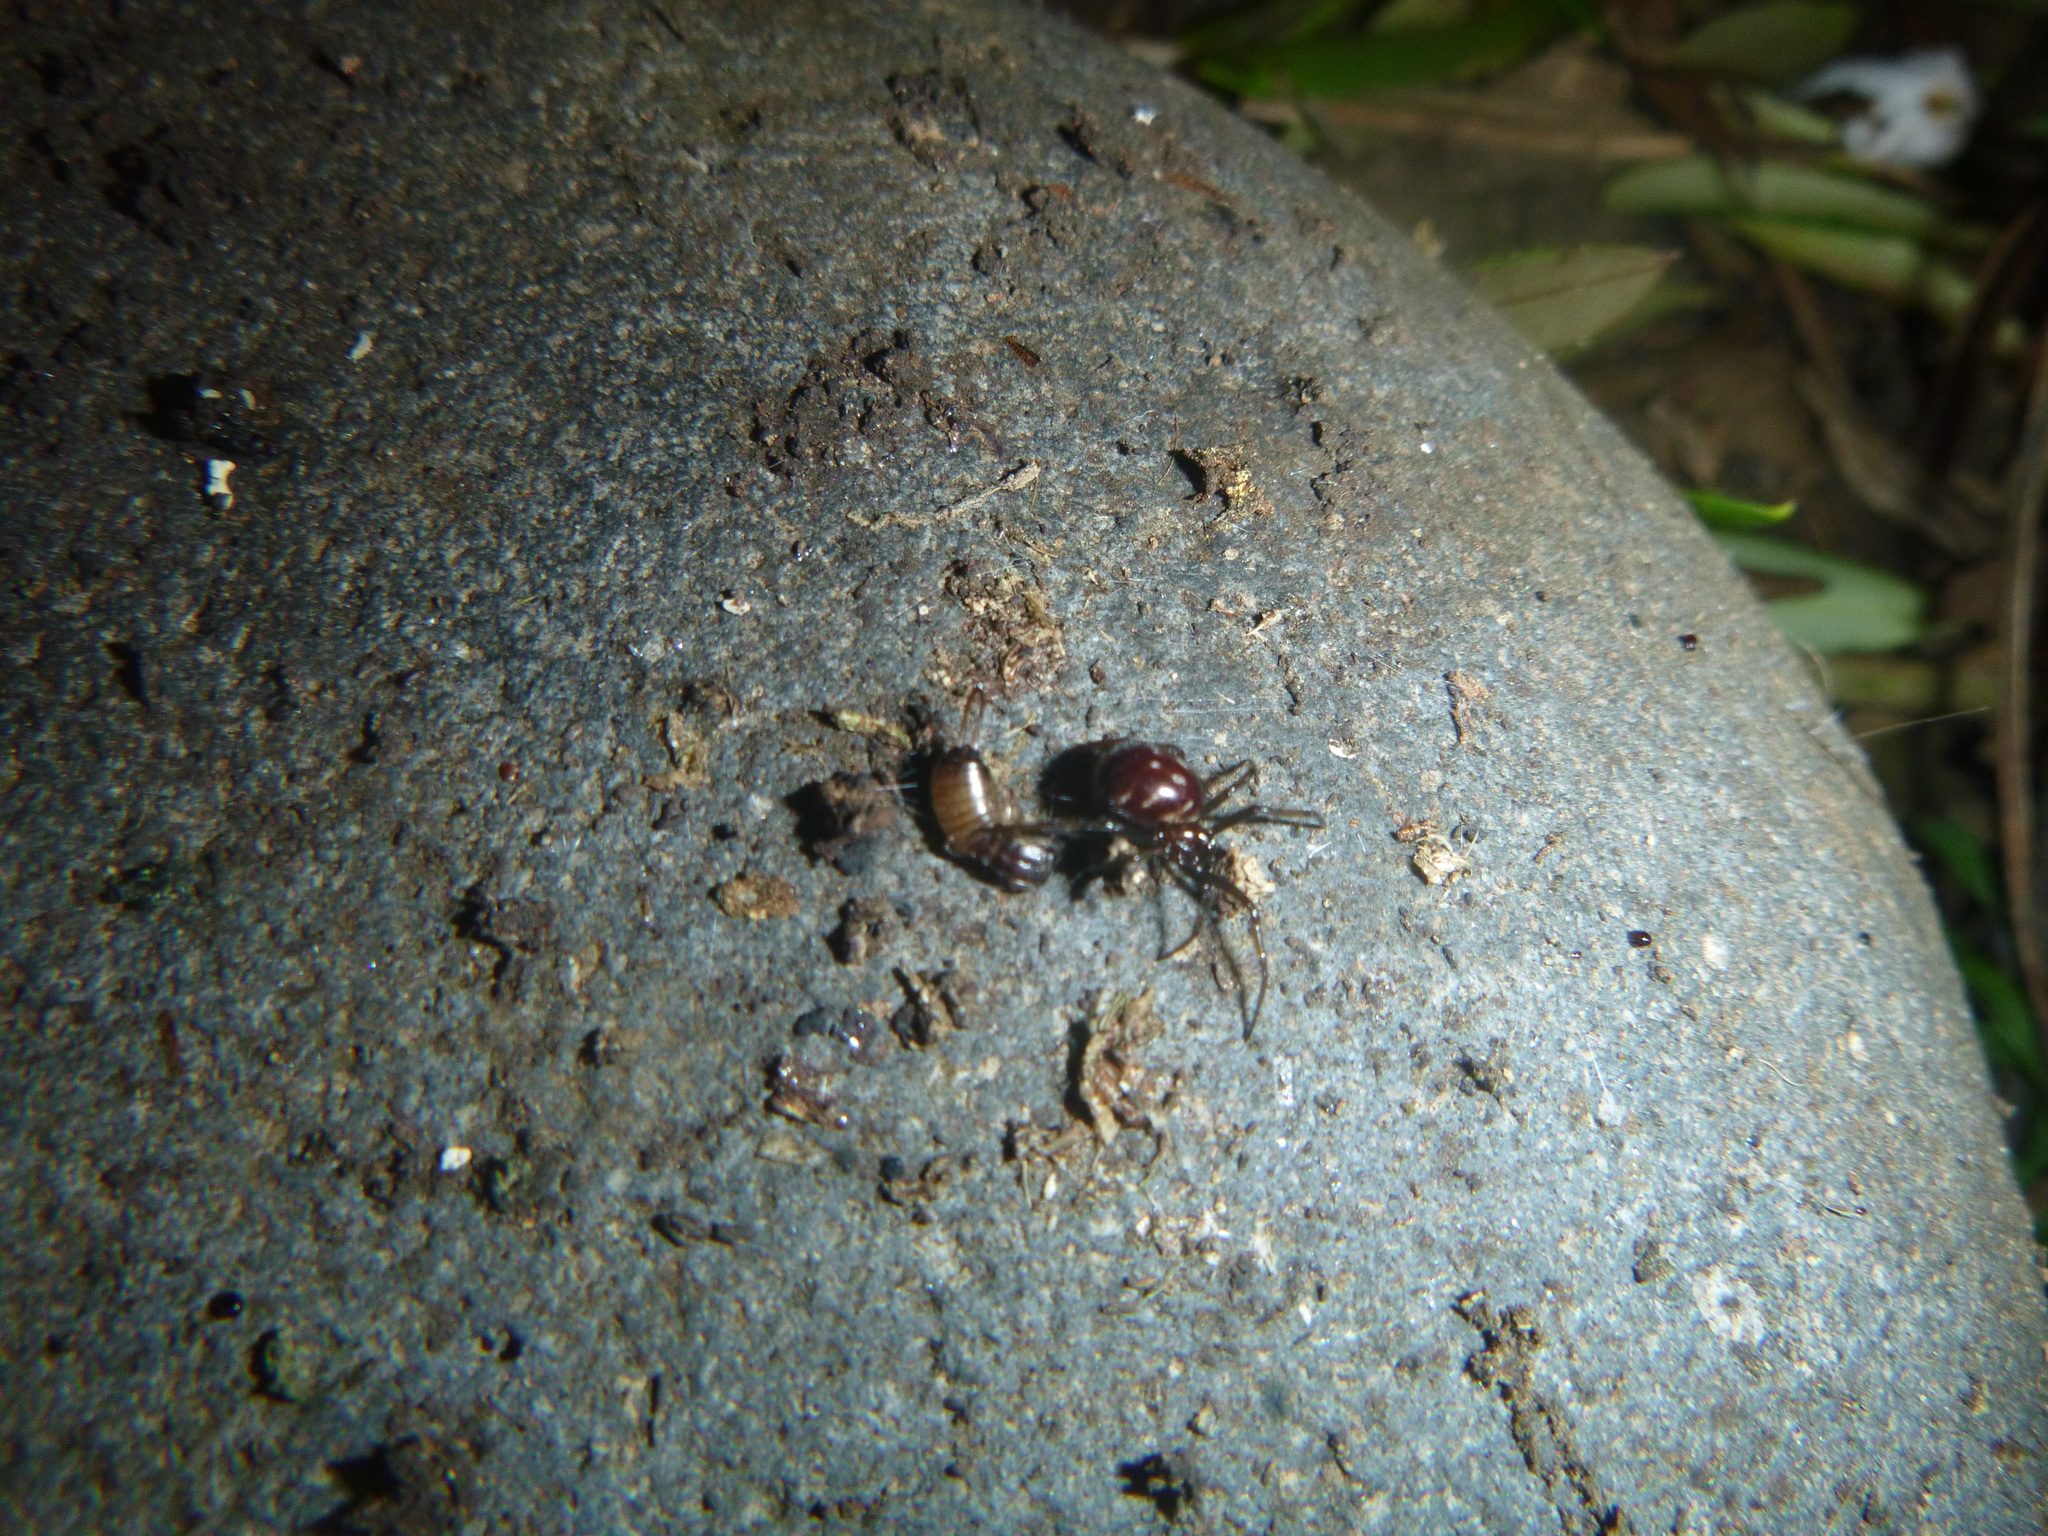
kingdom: Animalia
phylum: Arthropoda
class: Arachnida
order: Araneae
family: Theridiidae
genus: Steatoda
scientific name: Steatoda capensis
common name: Cobweb weaver
